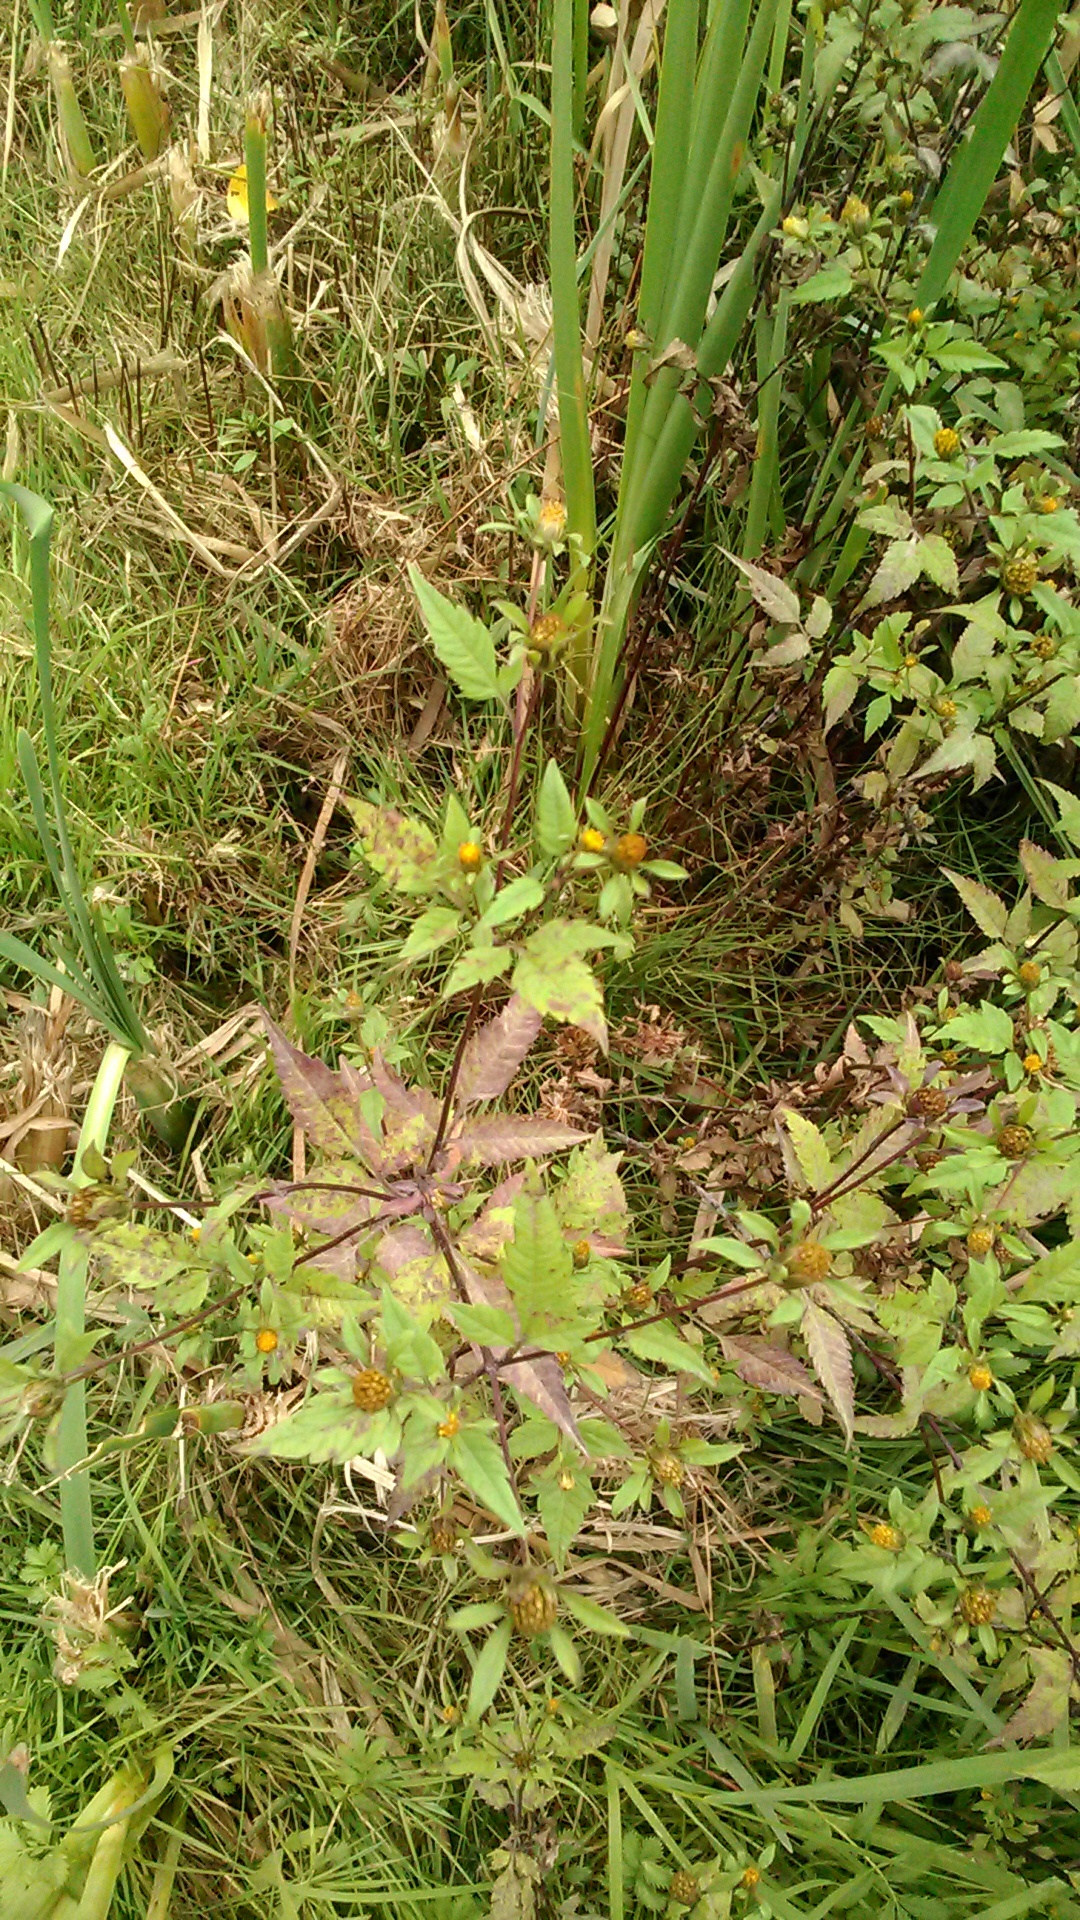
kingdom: Plantae
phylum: Tracheophyta
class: Magnoliopsida
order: Asterales
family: Asteraceae
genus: Bidens
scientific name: Bidens frondosa
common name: Beggarticks
